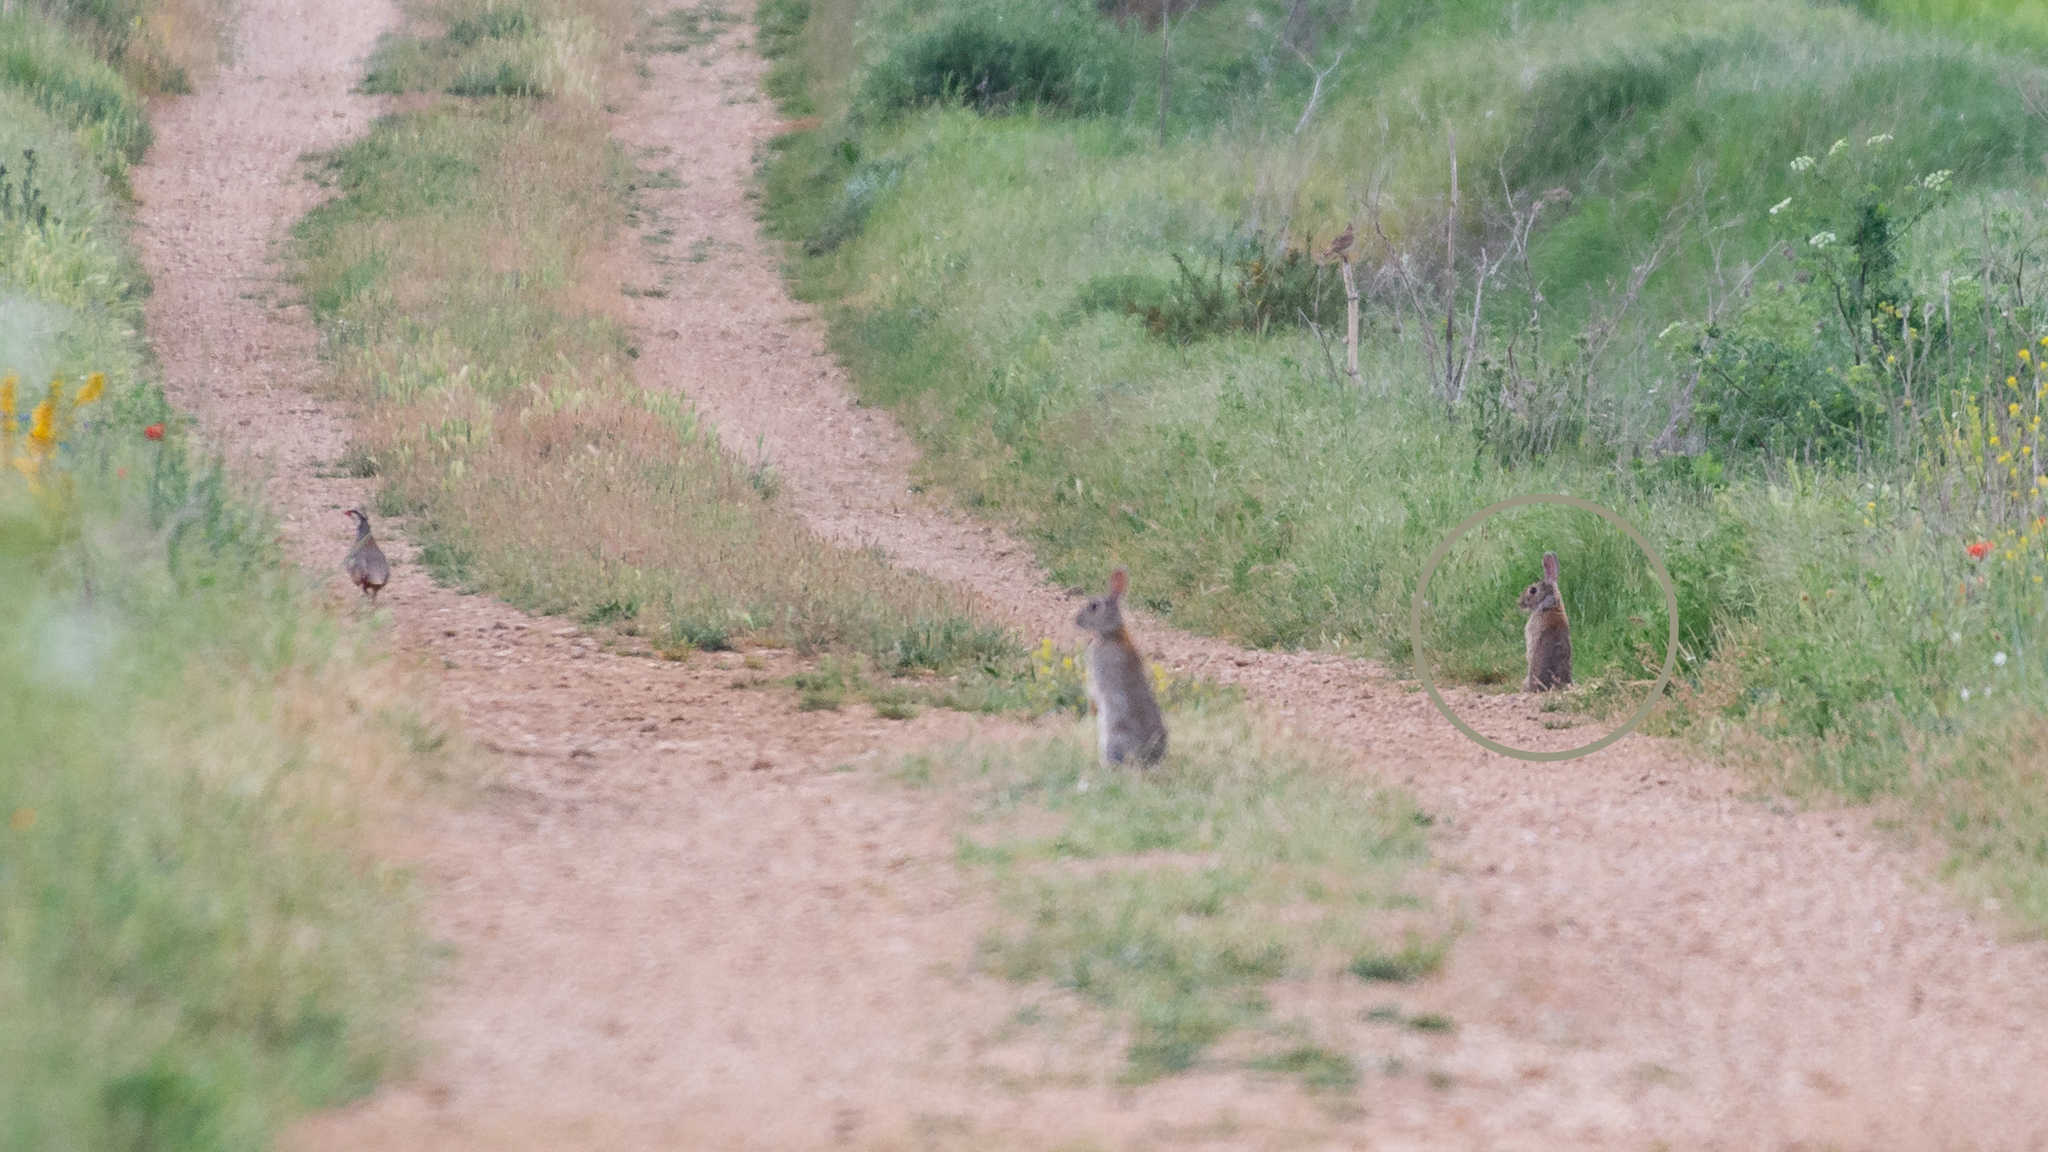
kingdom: Animalia
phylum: Chordata
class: Mammalia
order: Lagomorpha
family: Leporidae
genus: Oryctolagus
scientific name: Oryctolagus cuniculus
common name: European rabbit
